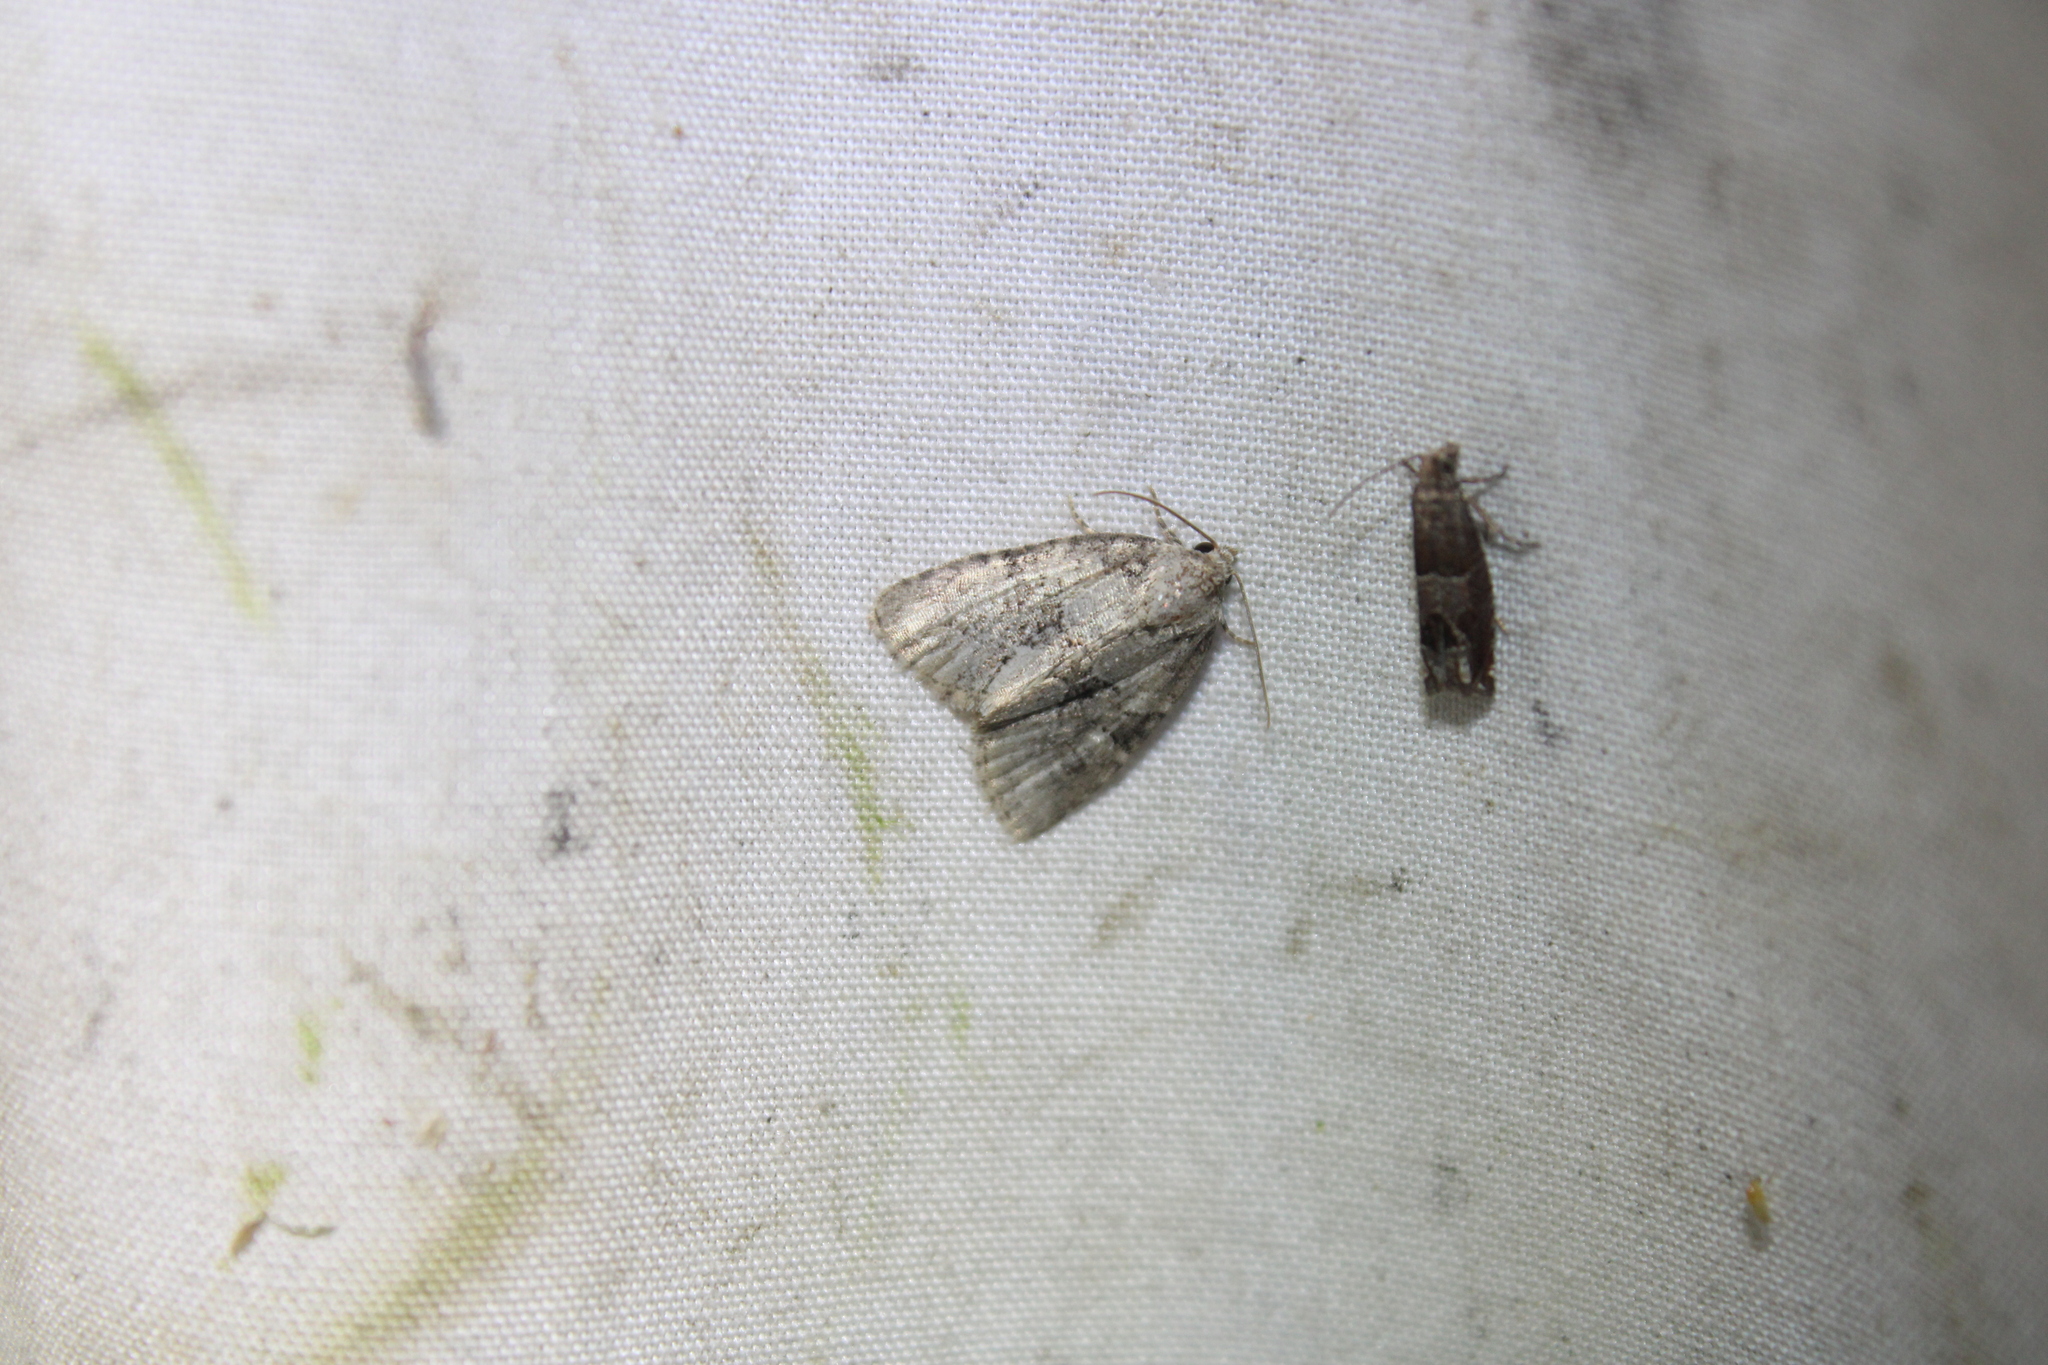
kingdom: Animalia
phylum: Arthropoda
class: Insecta
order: Lepidoptera
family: Noctuidae
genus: Neoligia
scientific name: Neoligia exhausta
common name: Exhausted brocade
